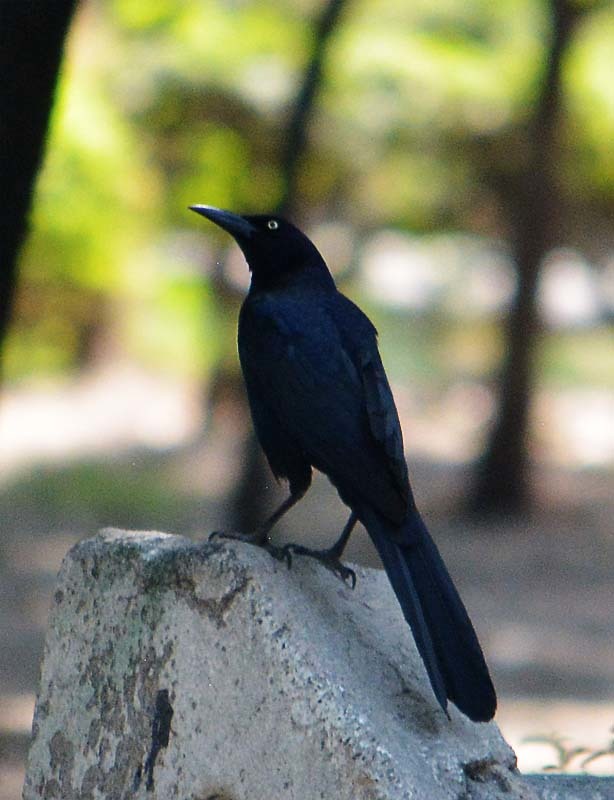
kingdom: Animalia
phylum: Chordata
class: Aves
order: Passeriformes
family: Icteridae
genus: Quiscalus
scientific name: Quiscalus mexicanus
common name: Great-tailed grackle
